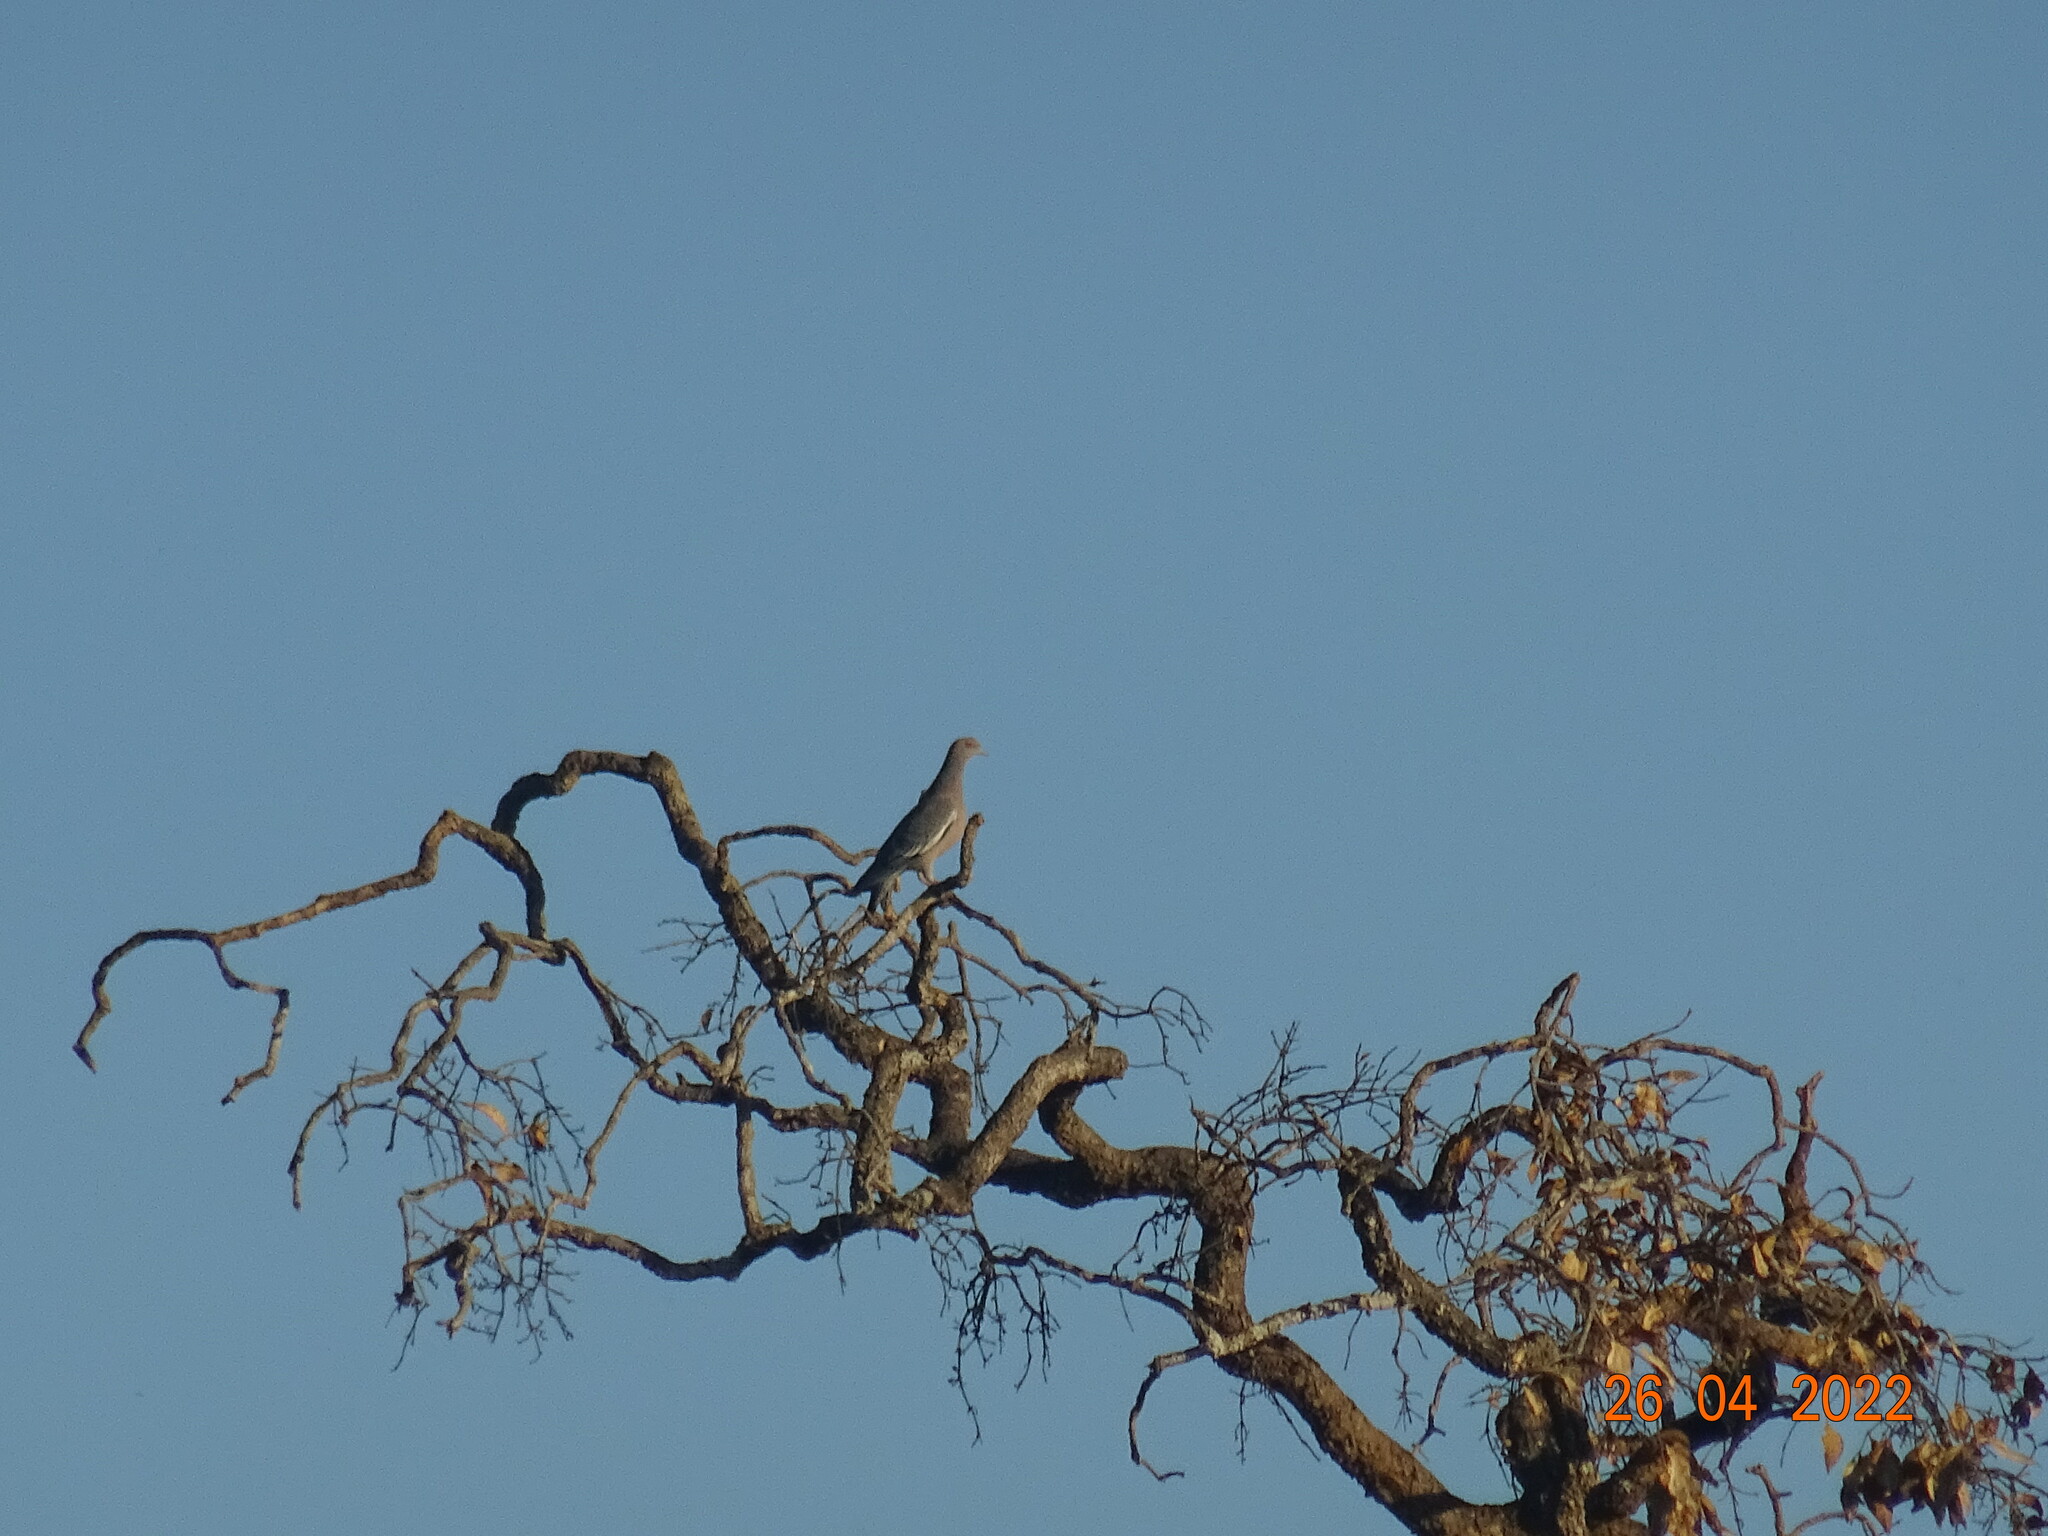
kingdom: Animalia
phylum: Chordata
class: Aves
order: Columbiformes
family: Columbidae
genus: Patagioenas
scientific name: Patagioenas picazuro
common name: Picazuro pigeon
